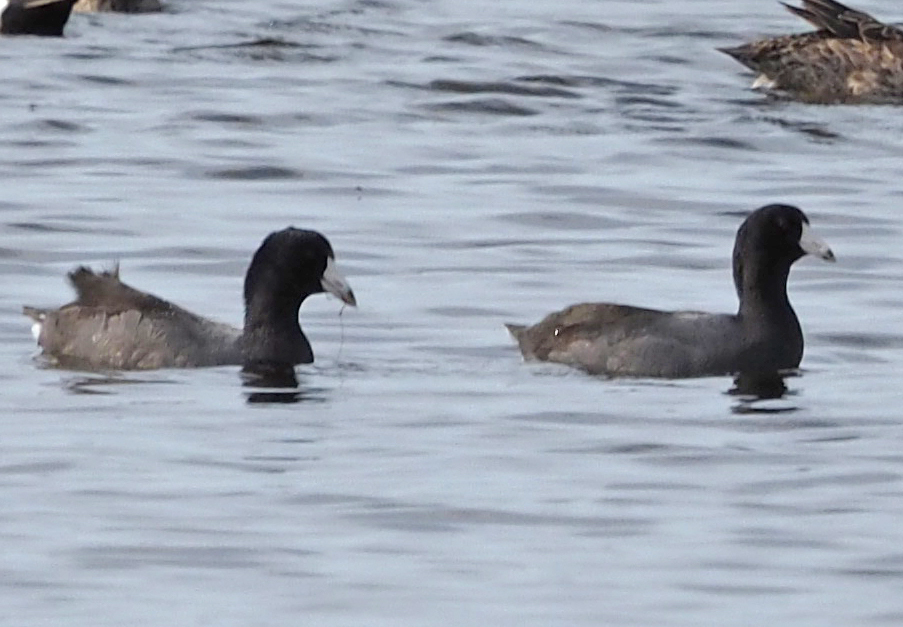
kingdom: Animalia
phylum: Chordata
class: Aves
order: Gruiformes
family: Rallidae
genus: Fulica
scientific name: Fulica americana
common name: American coot
